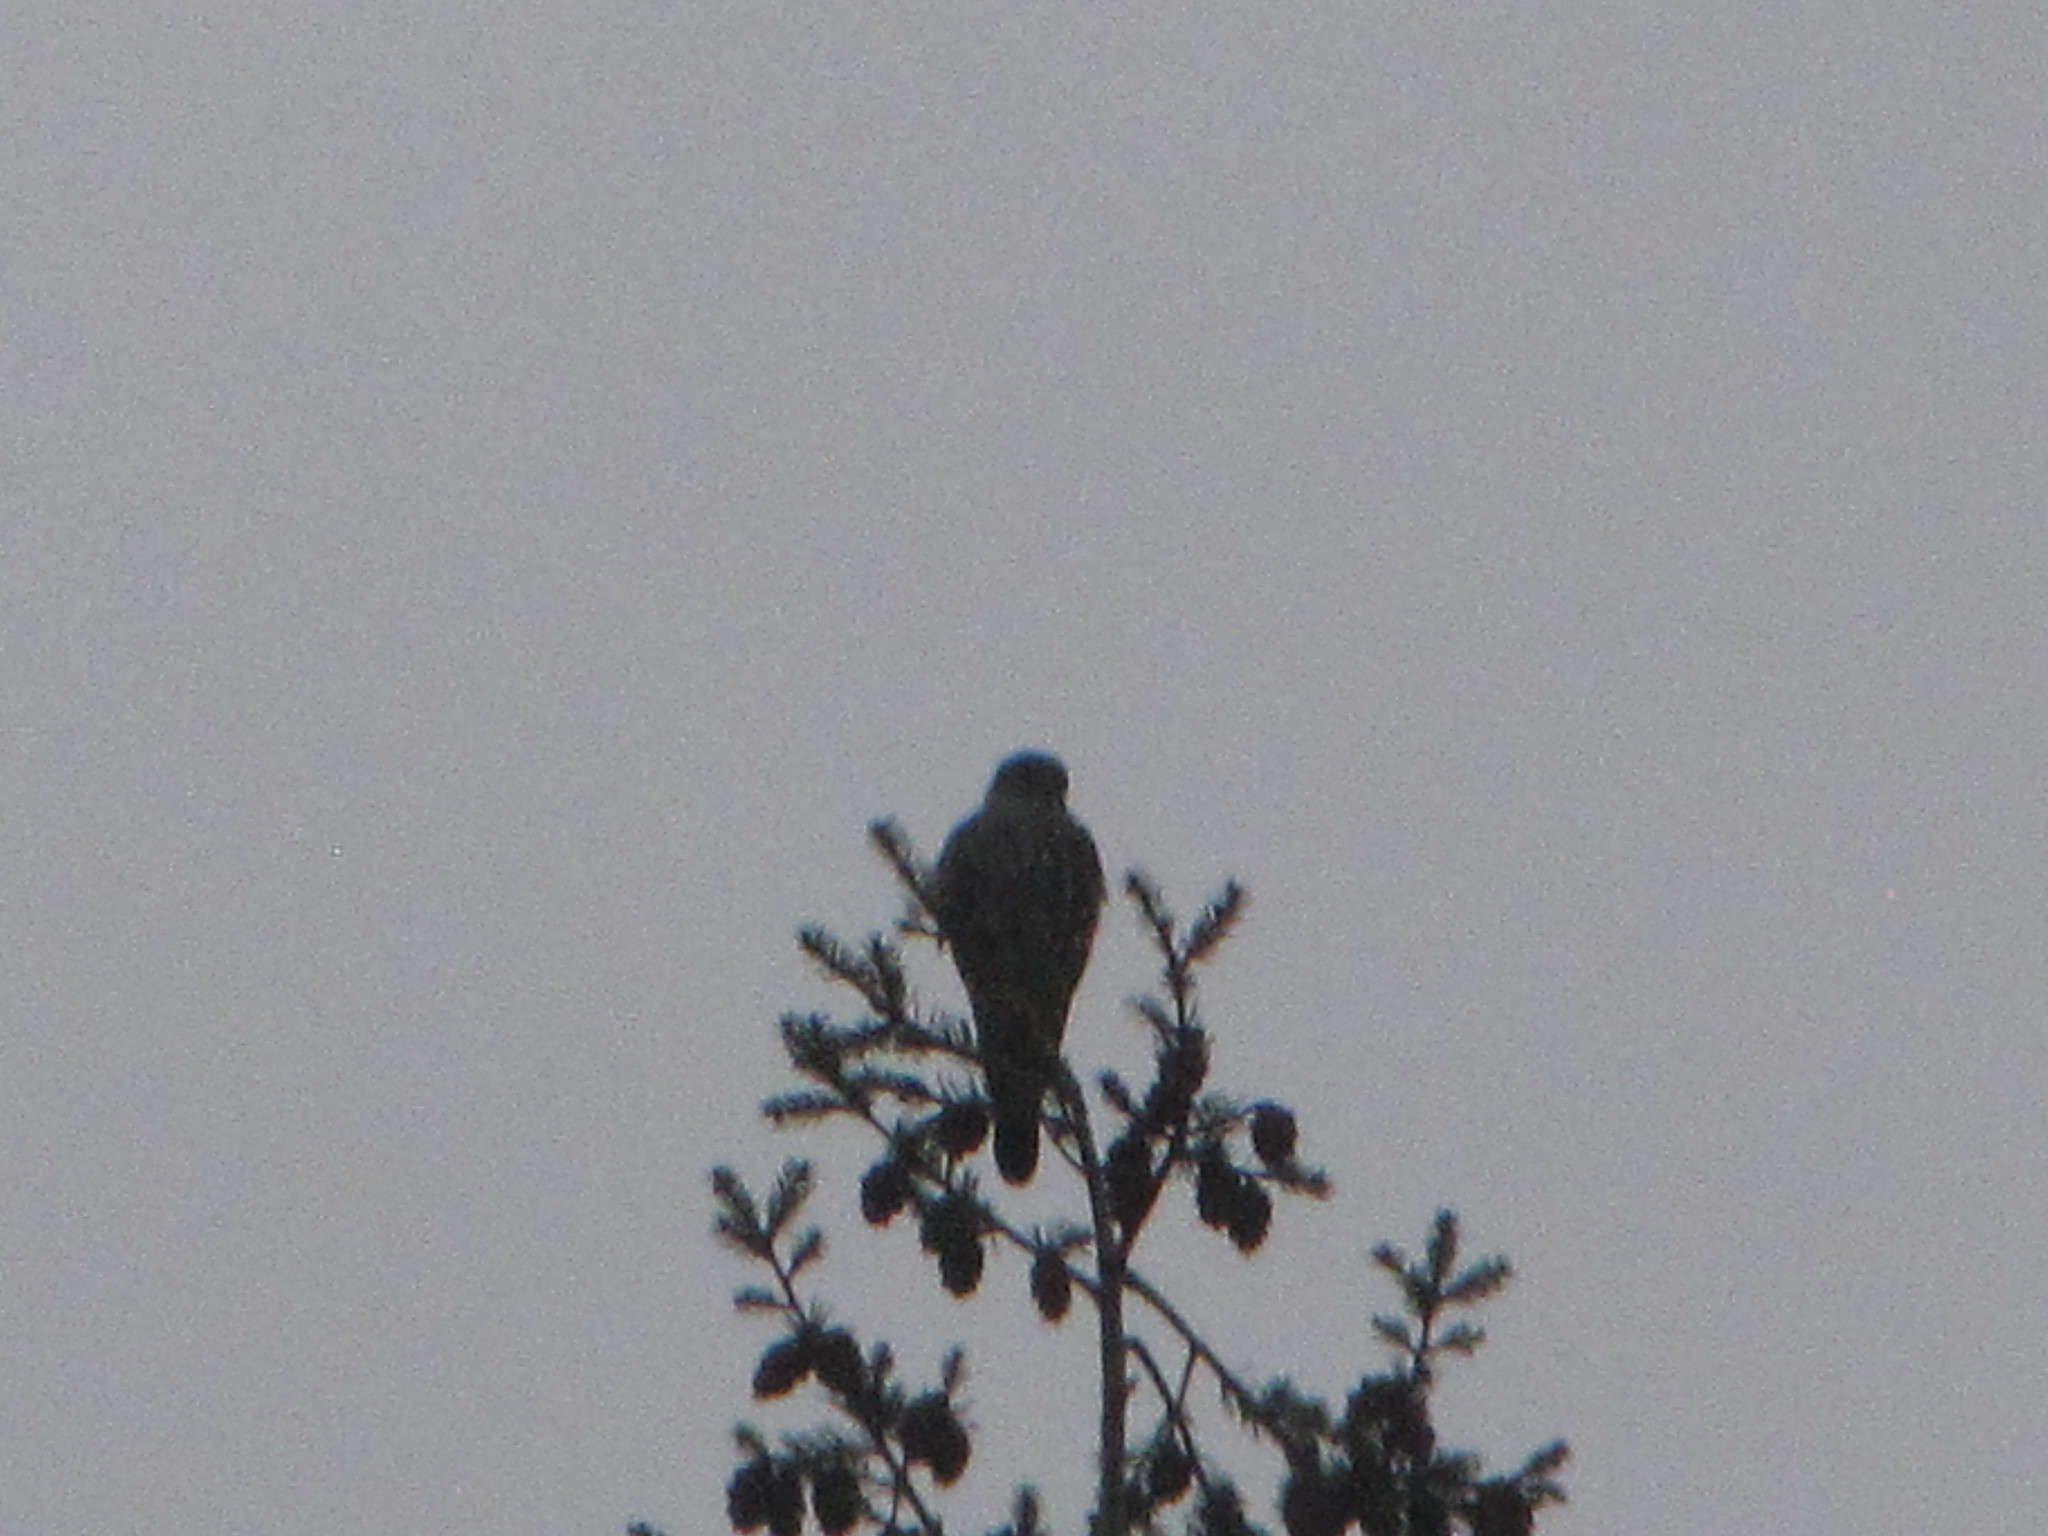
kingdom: Animalia
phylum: Chordata
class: Aves
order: Falconiformes
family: Falconidae
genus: Falco
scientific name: Falco columbarius
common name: Merlin
